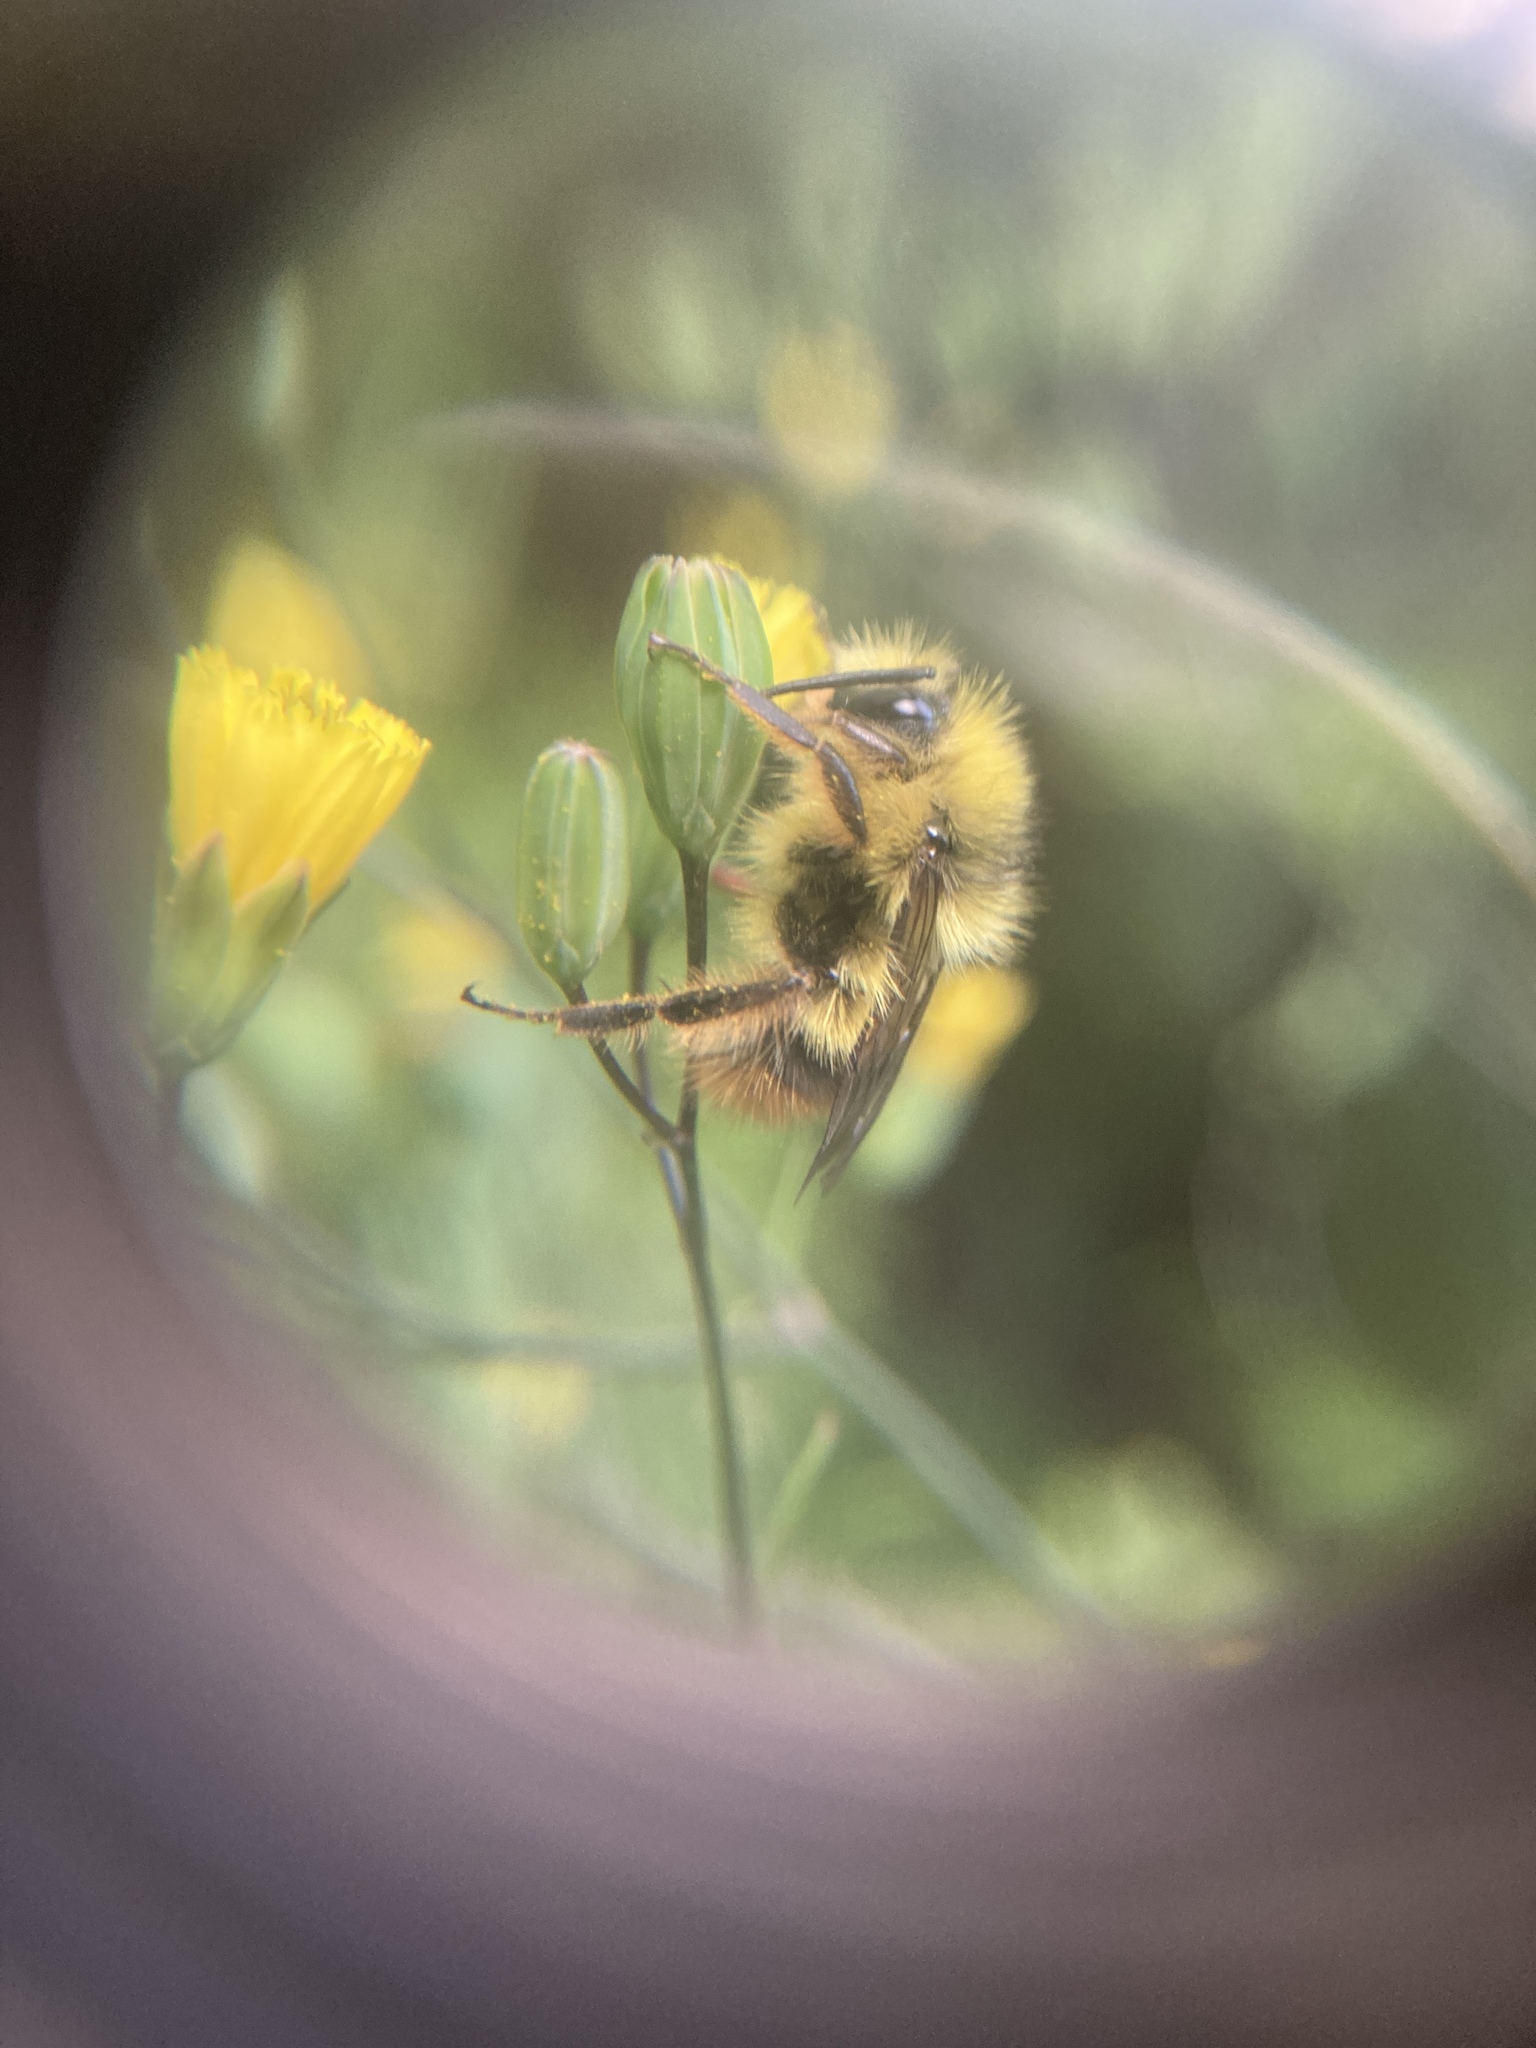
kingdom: Animalia
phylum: Arthropoda
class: Insecta
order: Hymenoptera
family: Apidae
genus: Bombus
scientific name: Bombus mixtus
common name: Fuzzy-horned bumble bee
